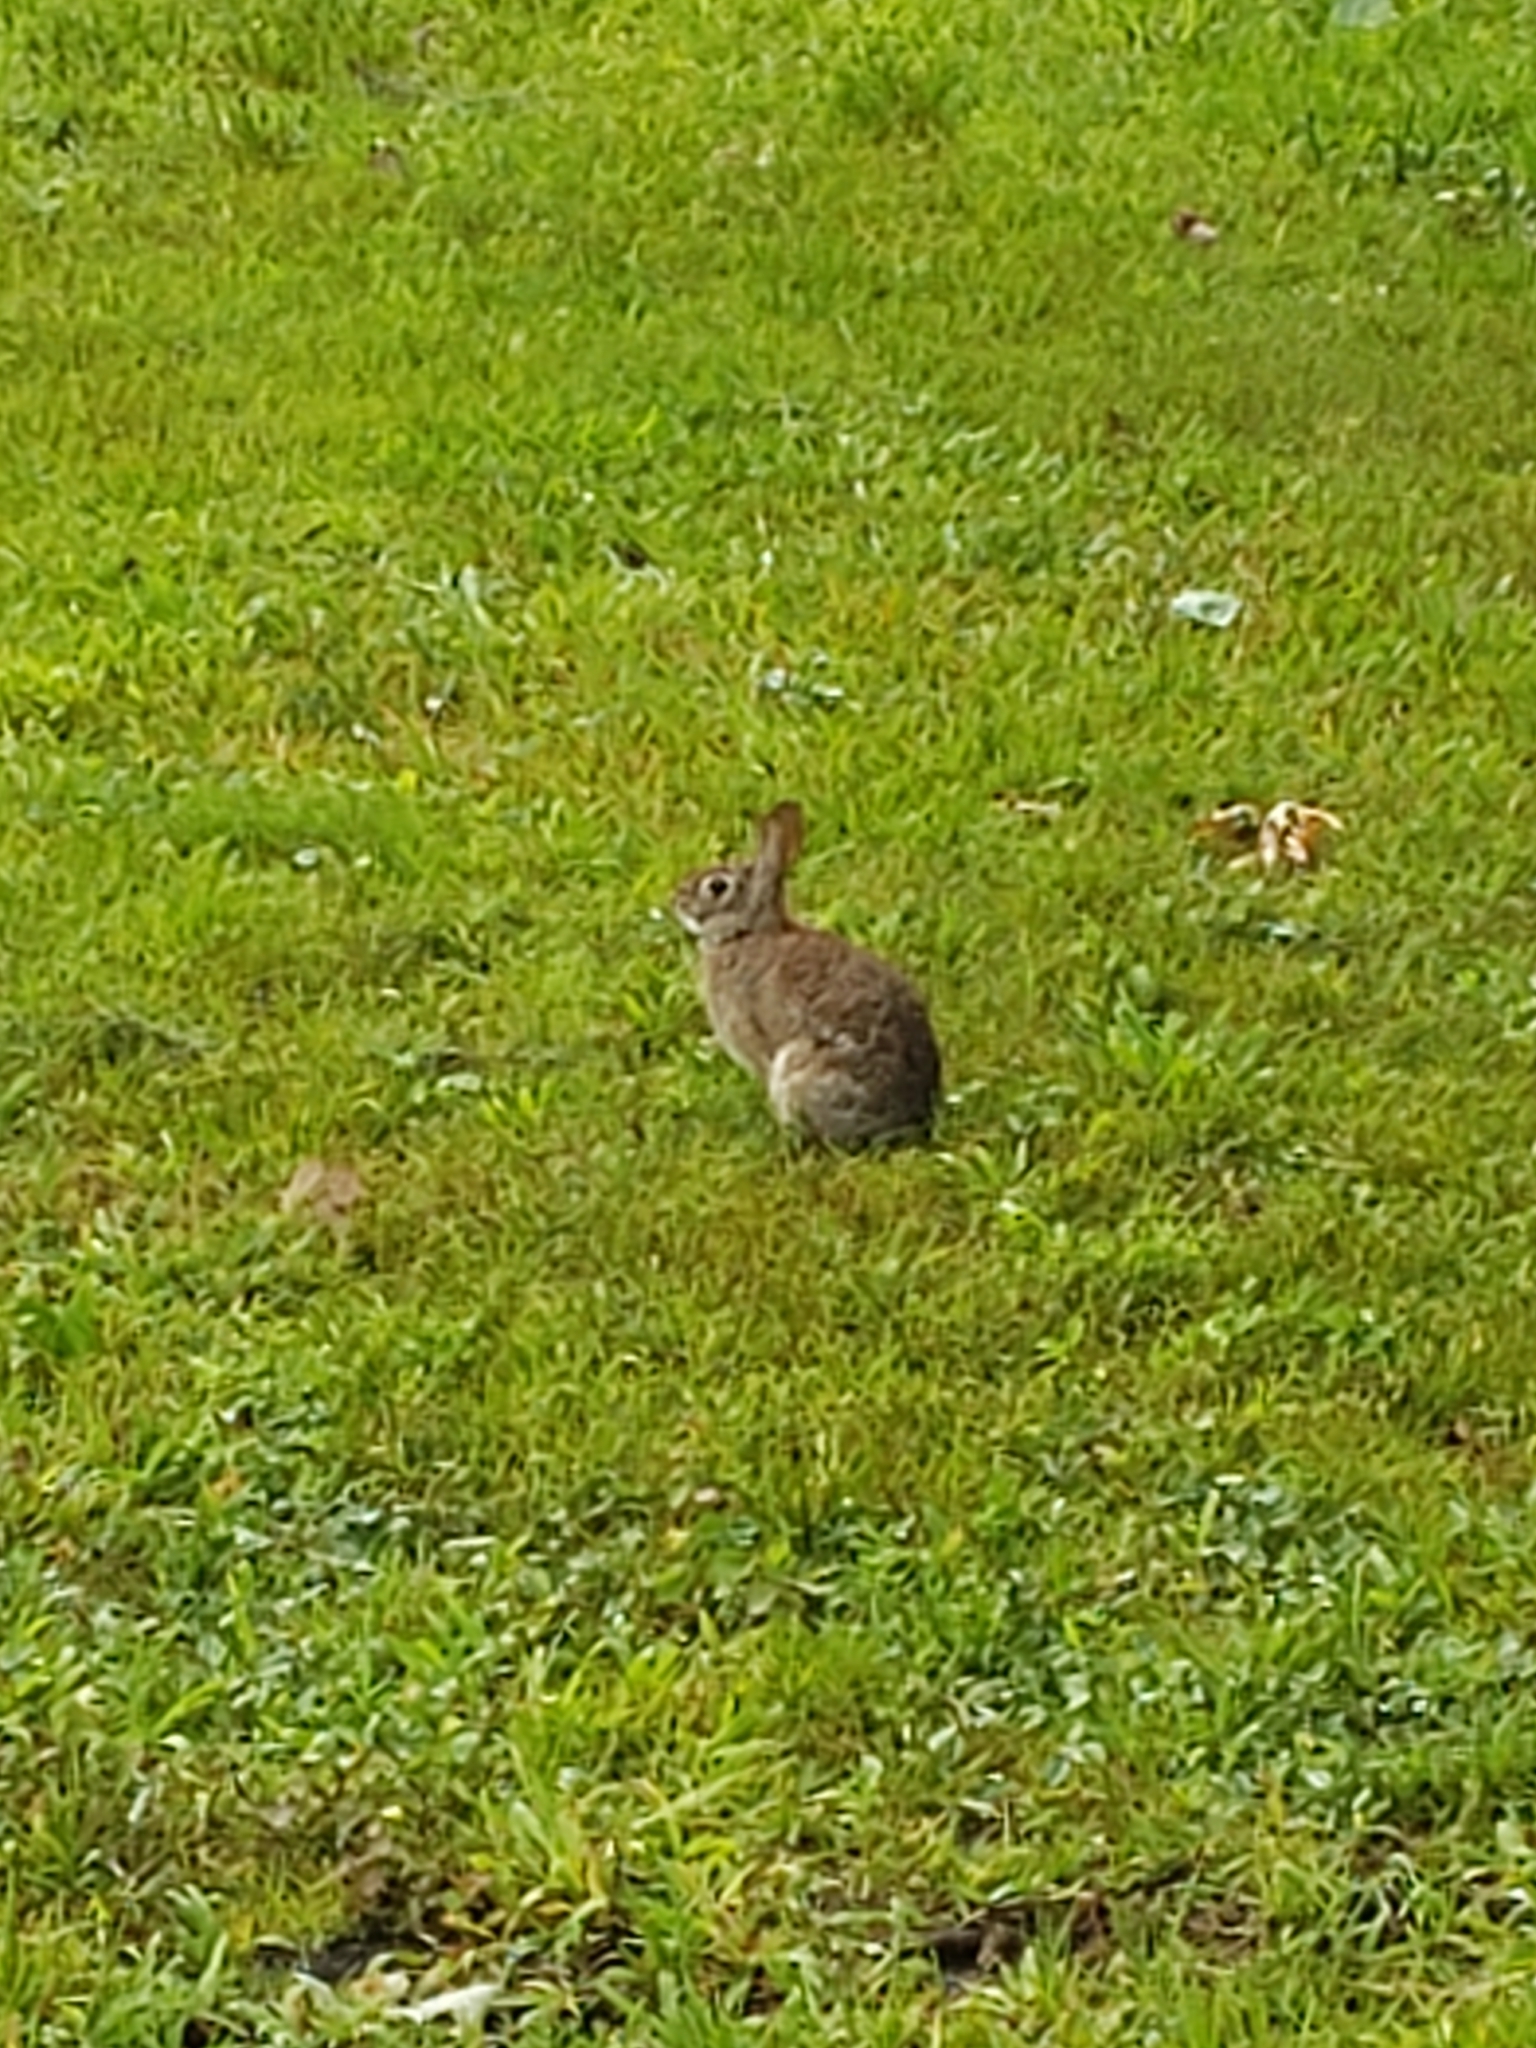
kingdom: Animalia
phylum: Chordata
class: Mammalia
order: Lagomorpha
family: Leporidae
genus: Sylvilagus
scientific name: Sylvilagus floridanus
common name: Eastern cottontail
